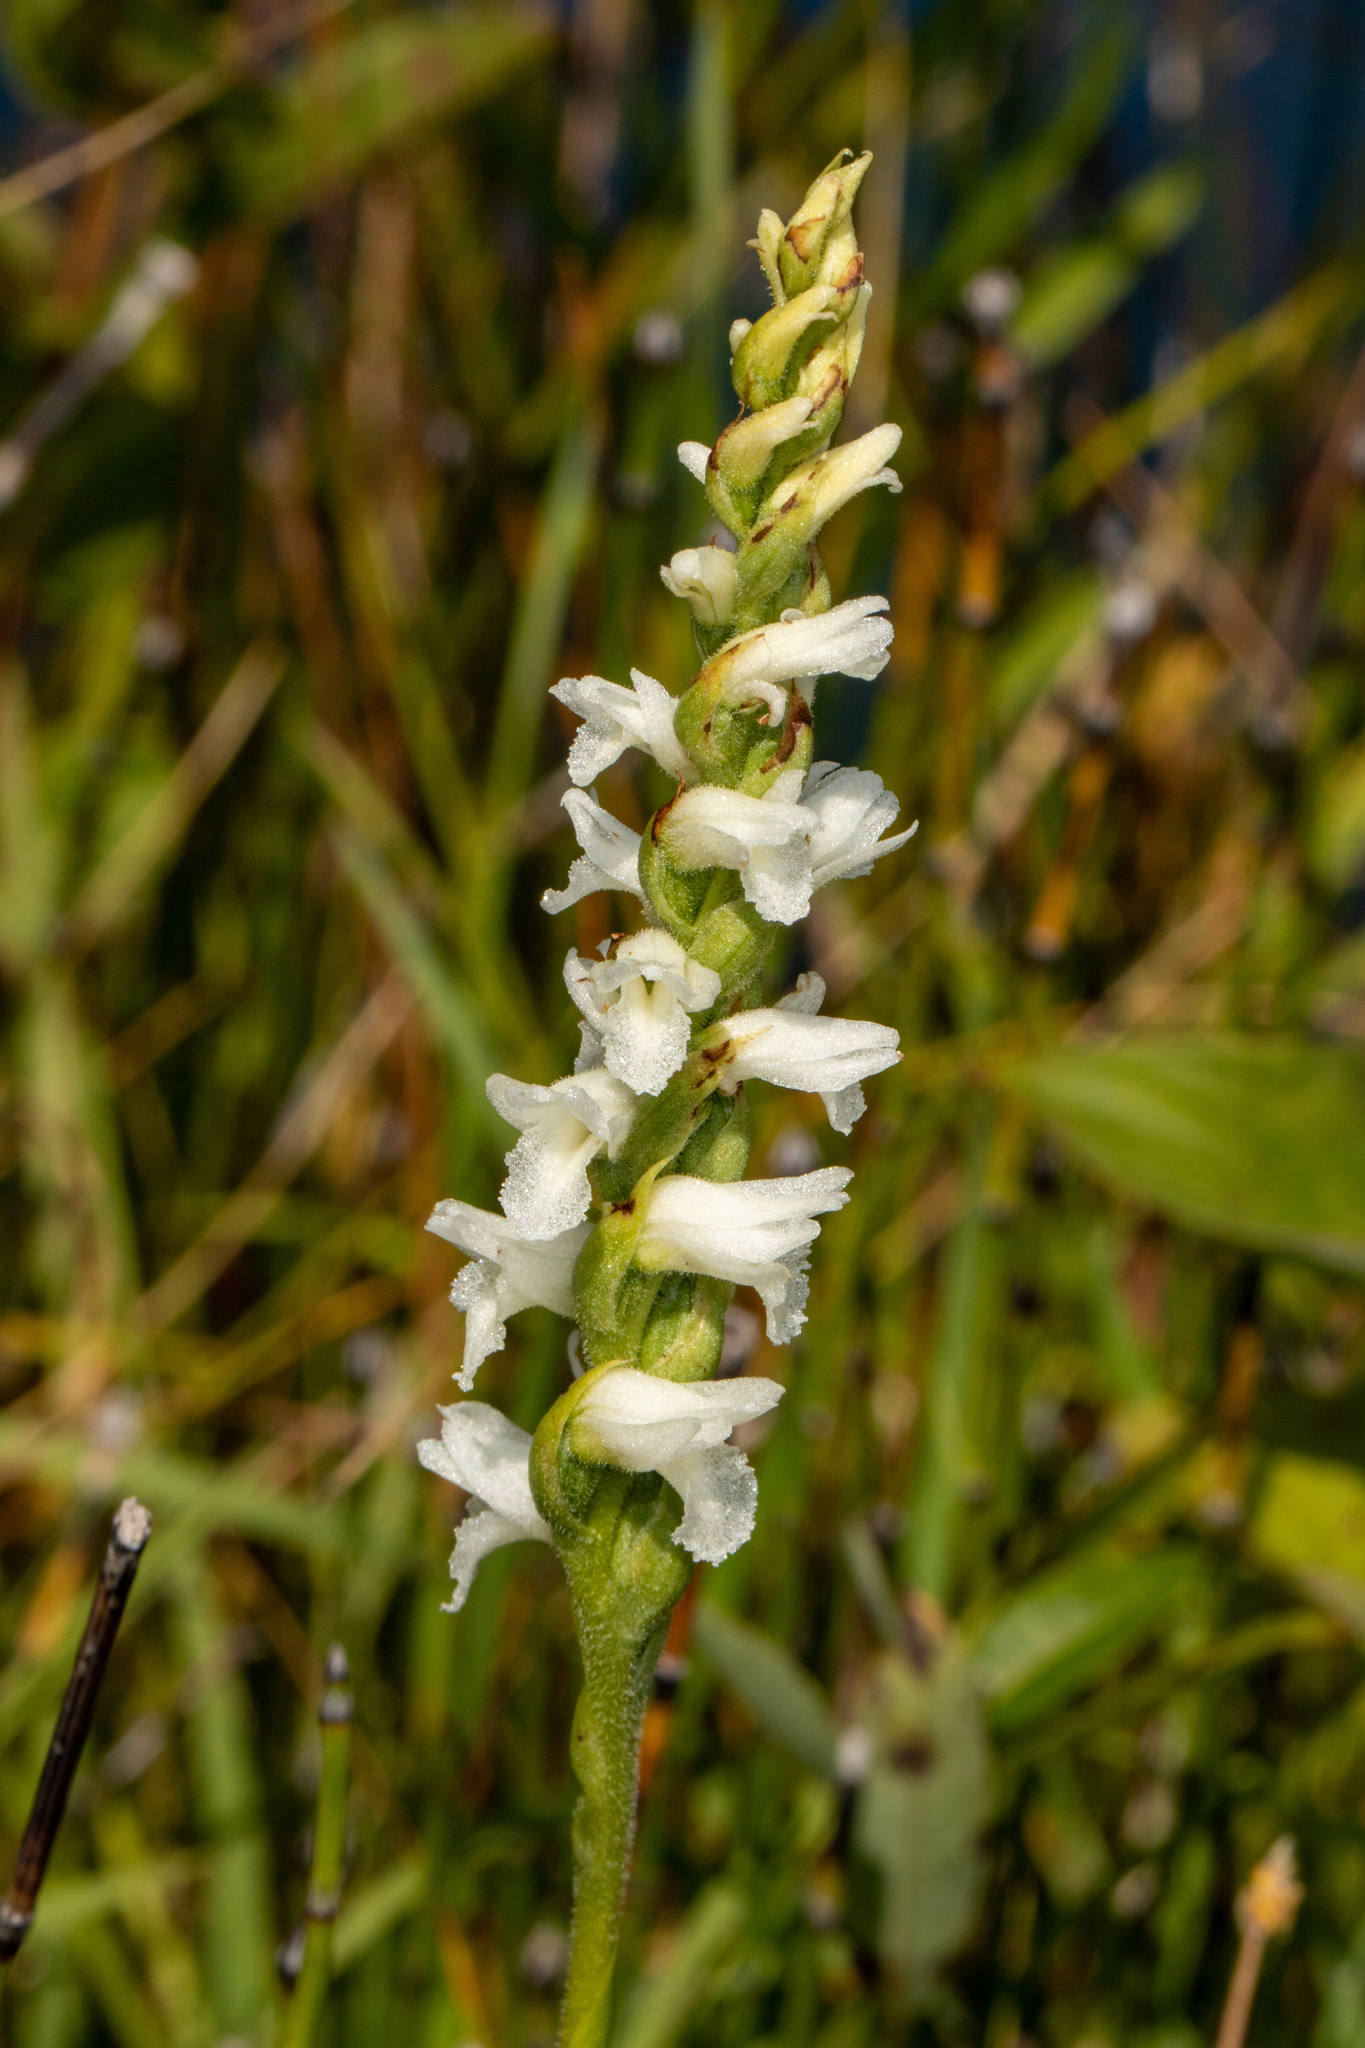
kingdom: Plantae
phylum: Tracheophyta
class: Liliopsida
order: Asparagales
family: Orchidaceae
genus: Spiranthes
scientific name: Spiranthes incurva
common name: Sphinx ladies'-tresses
